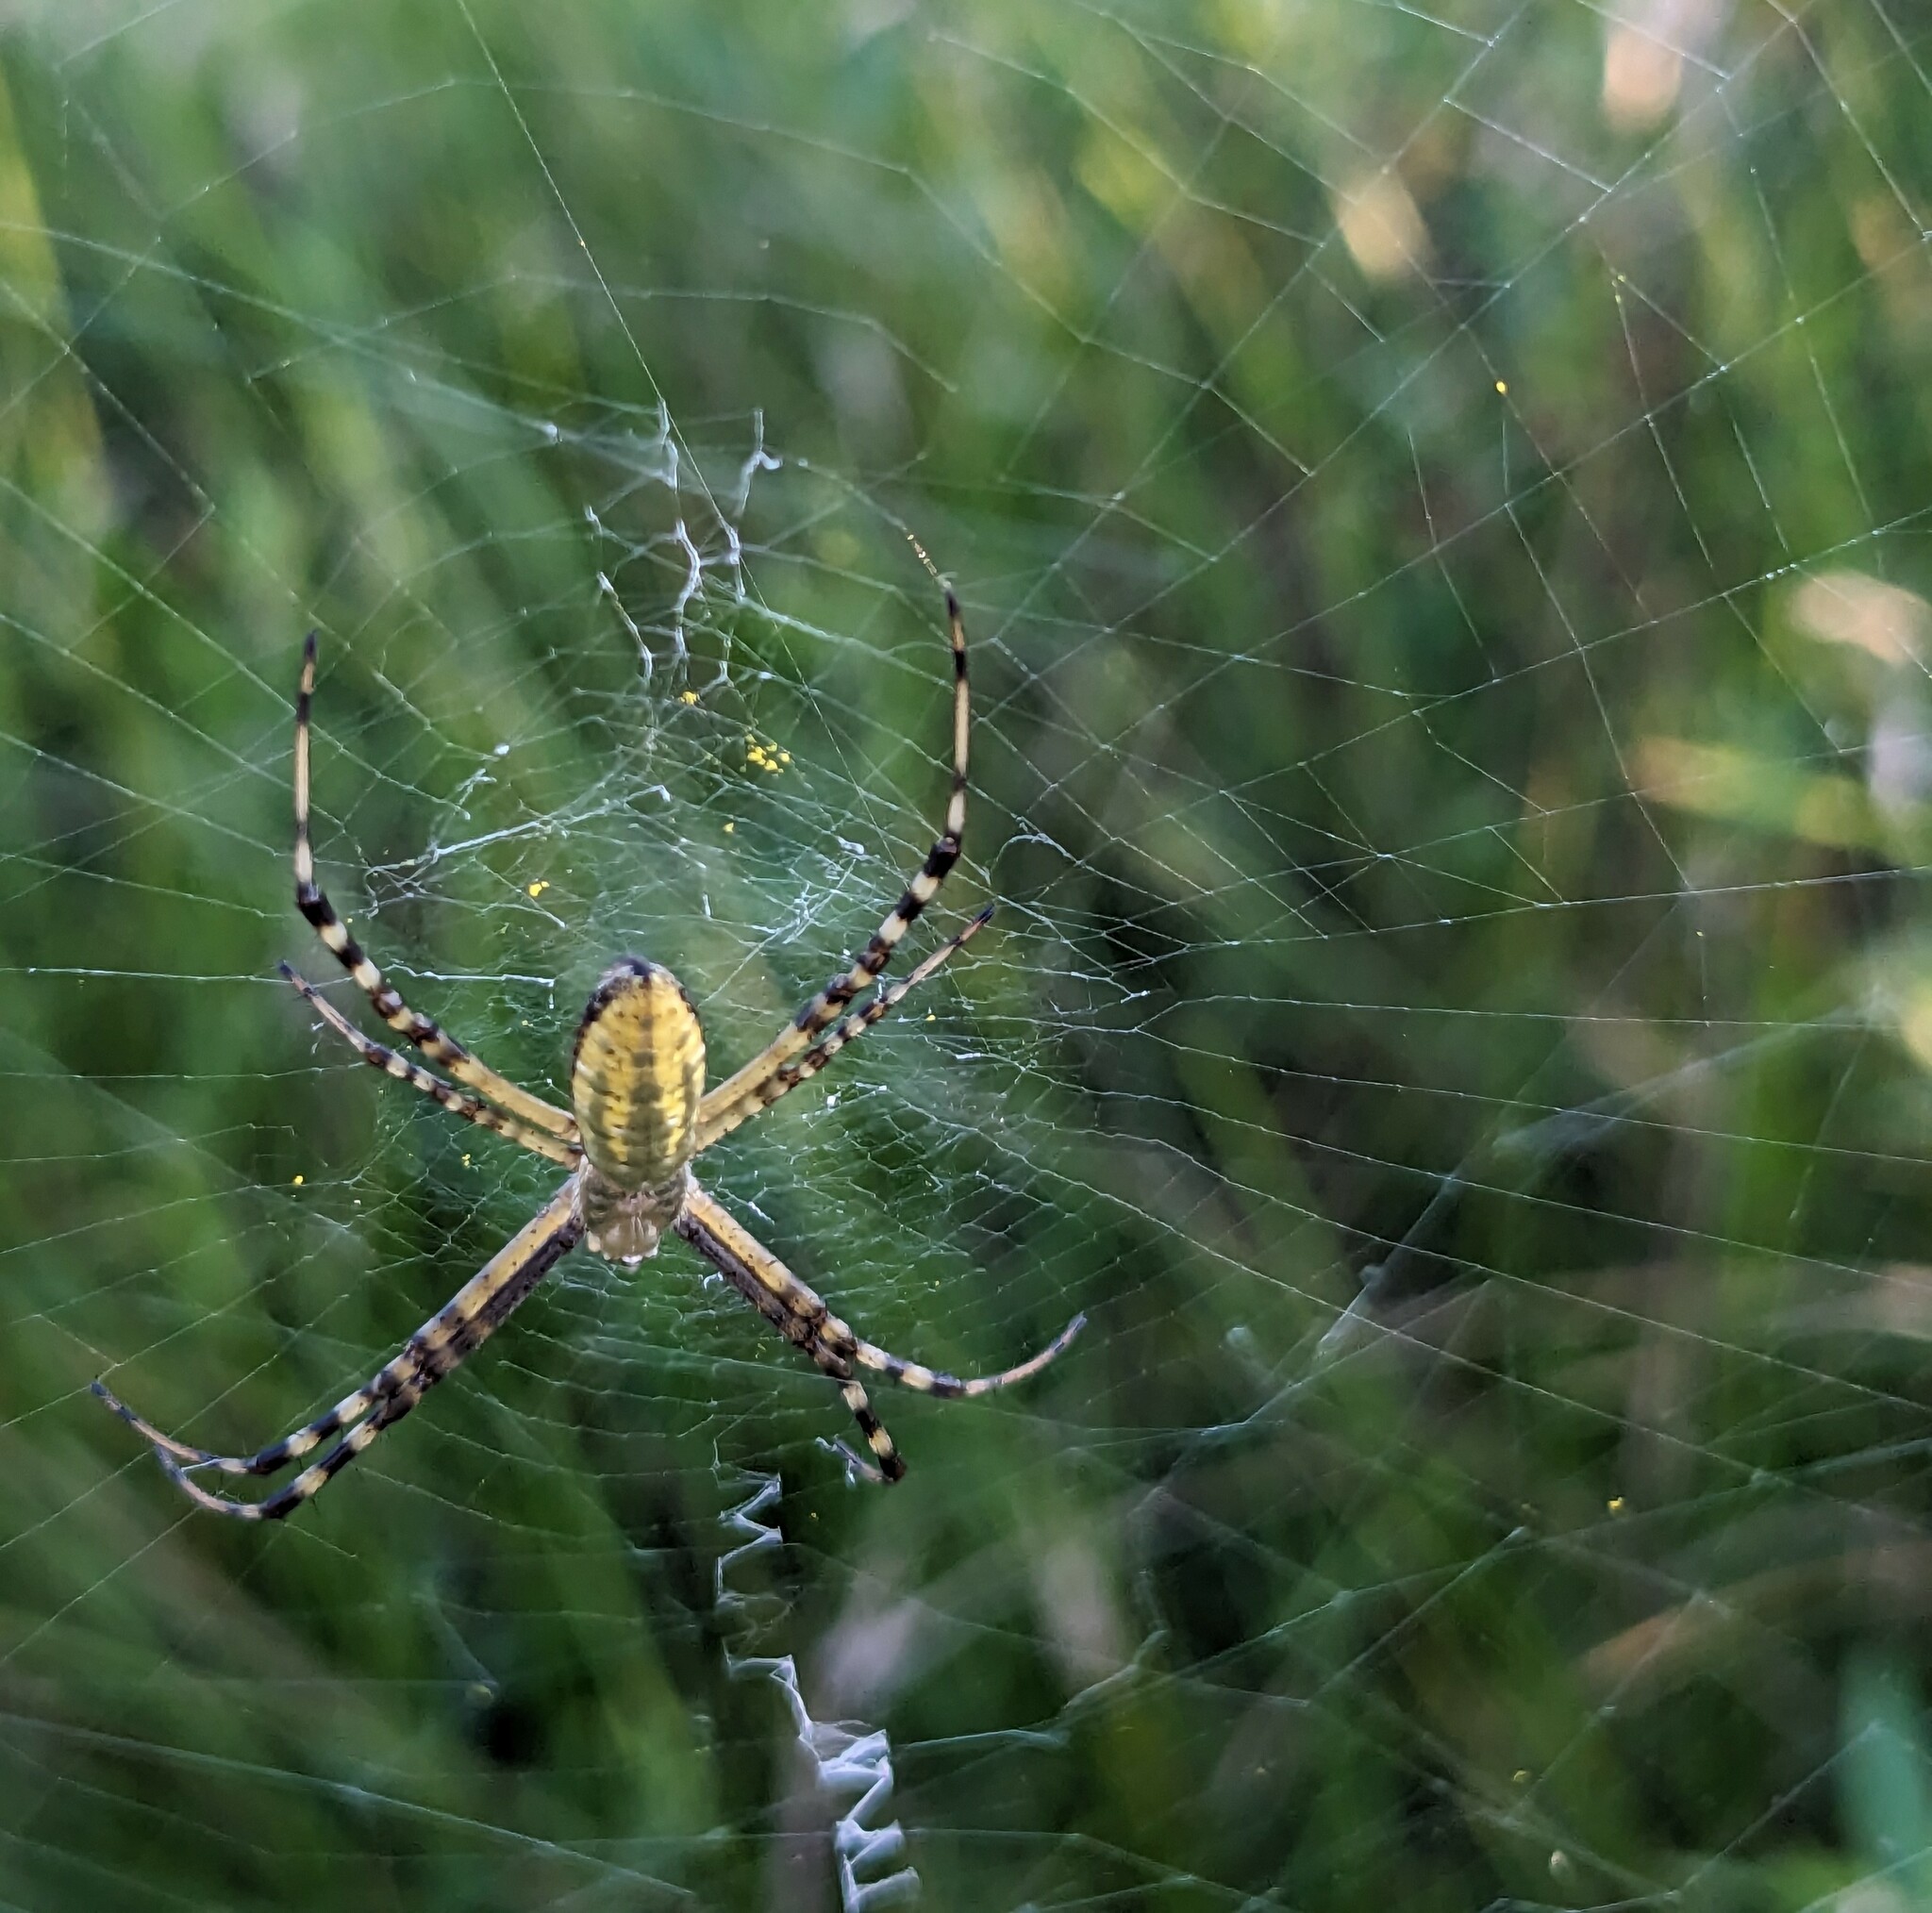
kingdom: Animalia
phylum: Arthropoda
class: Arachnida
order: Araneae
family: Araneidae
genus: Argiope
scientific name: Argiope trifasciata
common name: Banded garden spider
